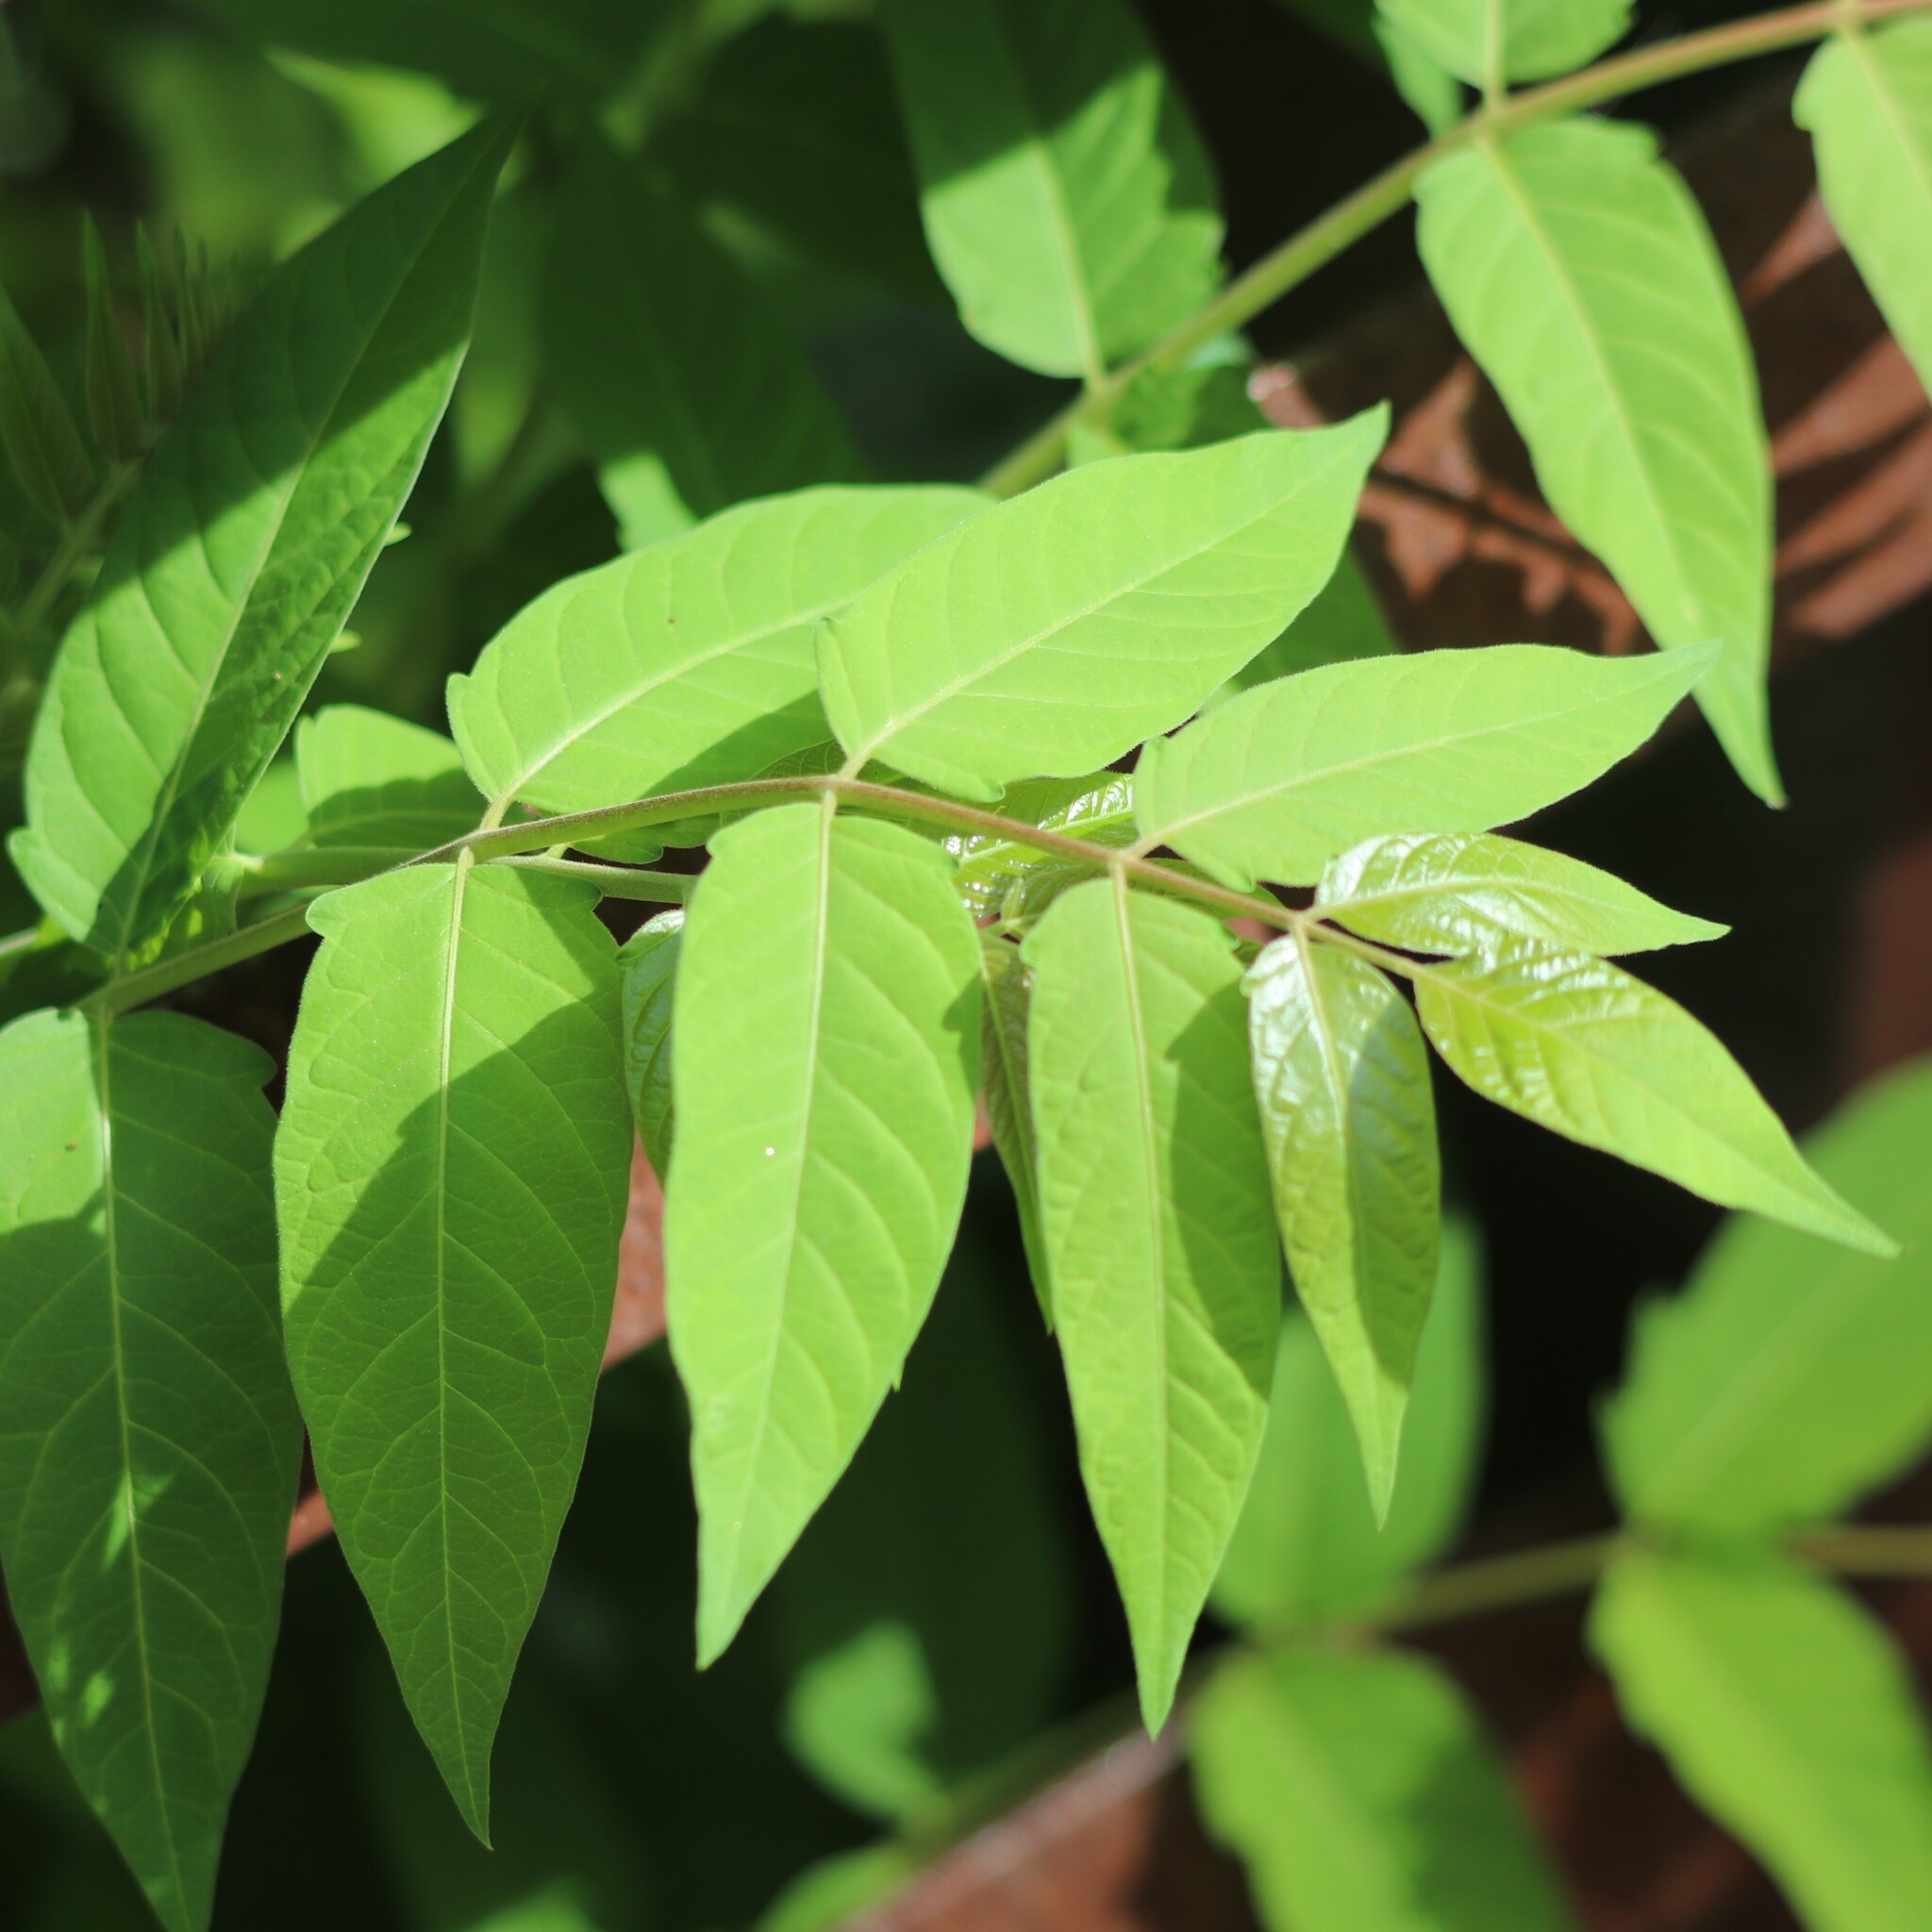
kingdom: Plantae
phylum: Tracheophyta
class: Magnoliopsida
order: Sapindales
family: Simaroubaceae
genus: Ailanthus
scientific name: Ailanthus altissima
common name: Tree-of-heaven
